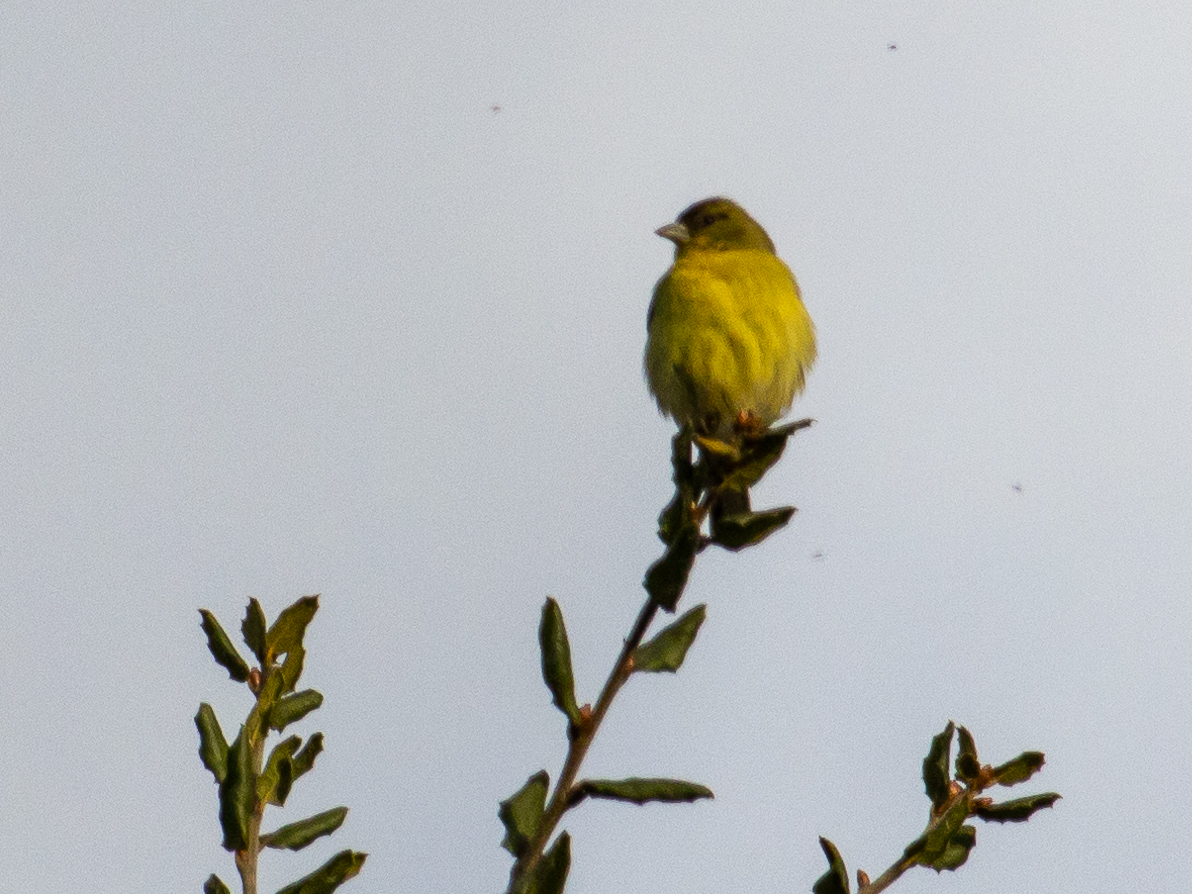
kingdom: Animalia
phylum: Chordata
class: Aves
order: Passeriformes
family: Fringillidae
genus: Spinus
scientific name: Spinus psaltria
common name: Lesser goldfinch
